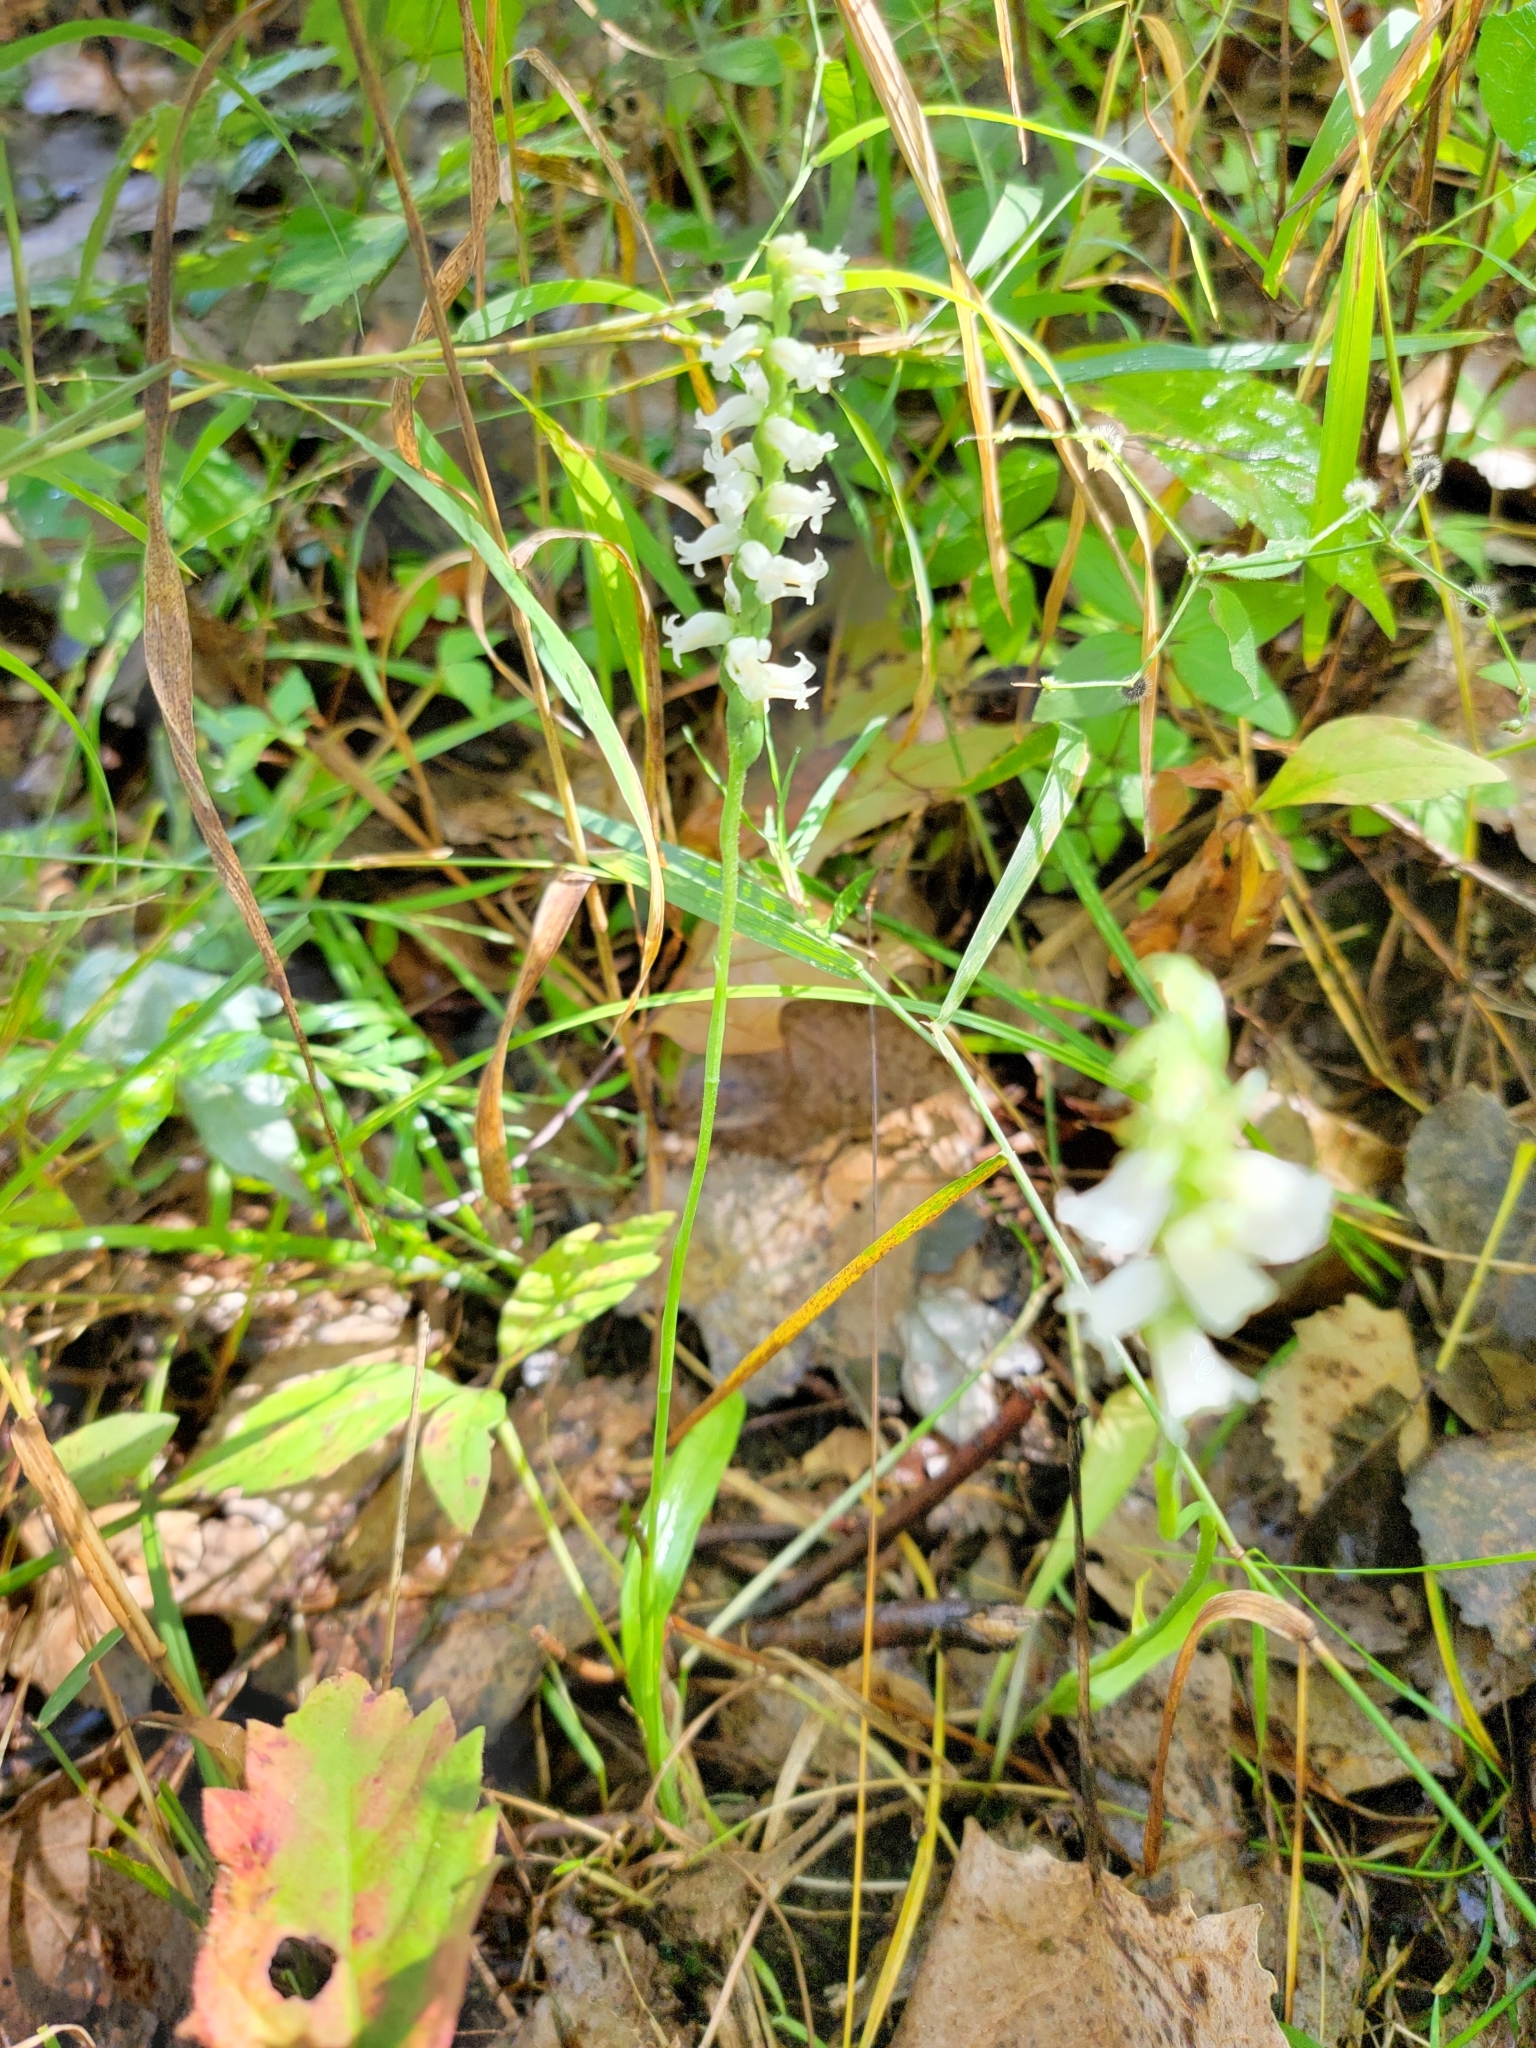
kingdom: Plantae
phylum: Tracheophyta
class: Liliopsida
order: Asparagales
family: Orchidaceae
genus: Spiranthes
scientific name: Spiranthes ochroleuca
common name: Yellow ladies'-tresses
